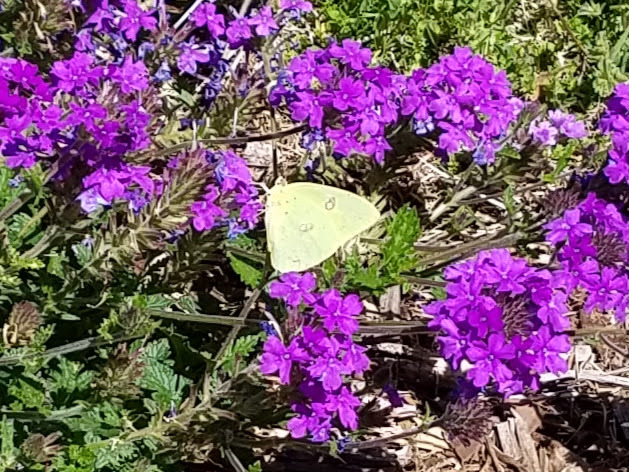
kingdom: Animalia
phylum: Arthropoda
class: Insecta
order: Lepidoptera
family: Pieridae
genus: Phoebis
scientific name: Phoebis sennae
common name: Cloudless sulphur
